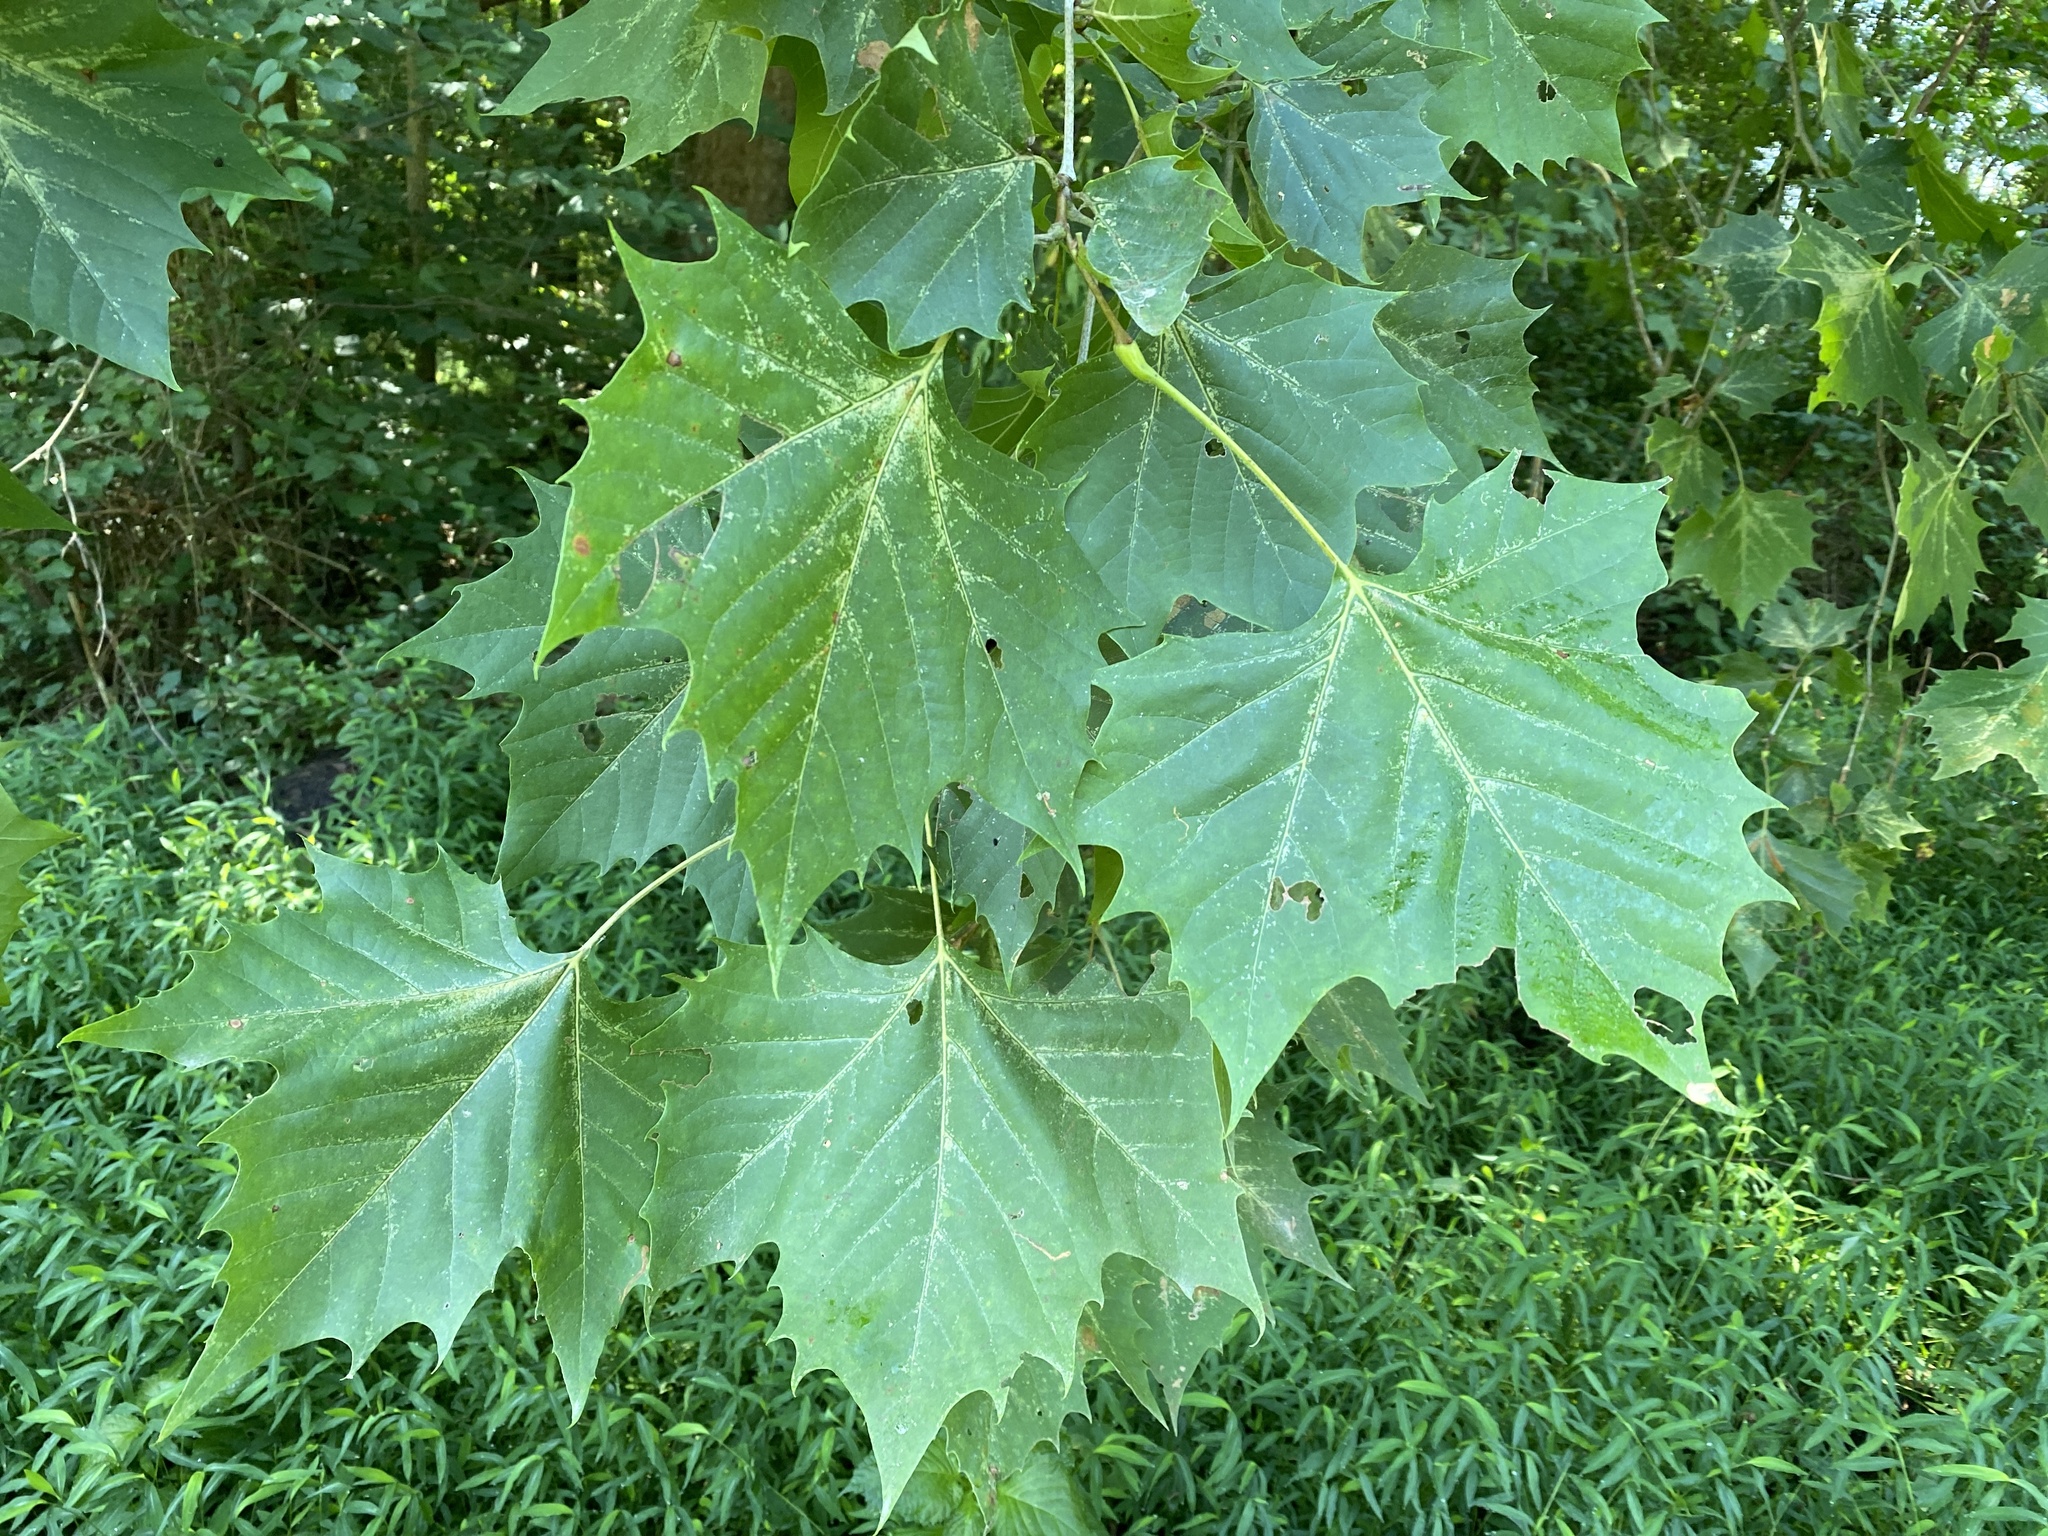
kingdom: Plantae
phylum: Tracheophyta
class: Magnoliopsida
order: Proteales
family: Platanaceae
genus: Platanus
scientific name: Platanus occidentalis
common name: American sycamore
